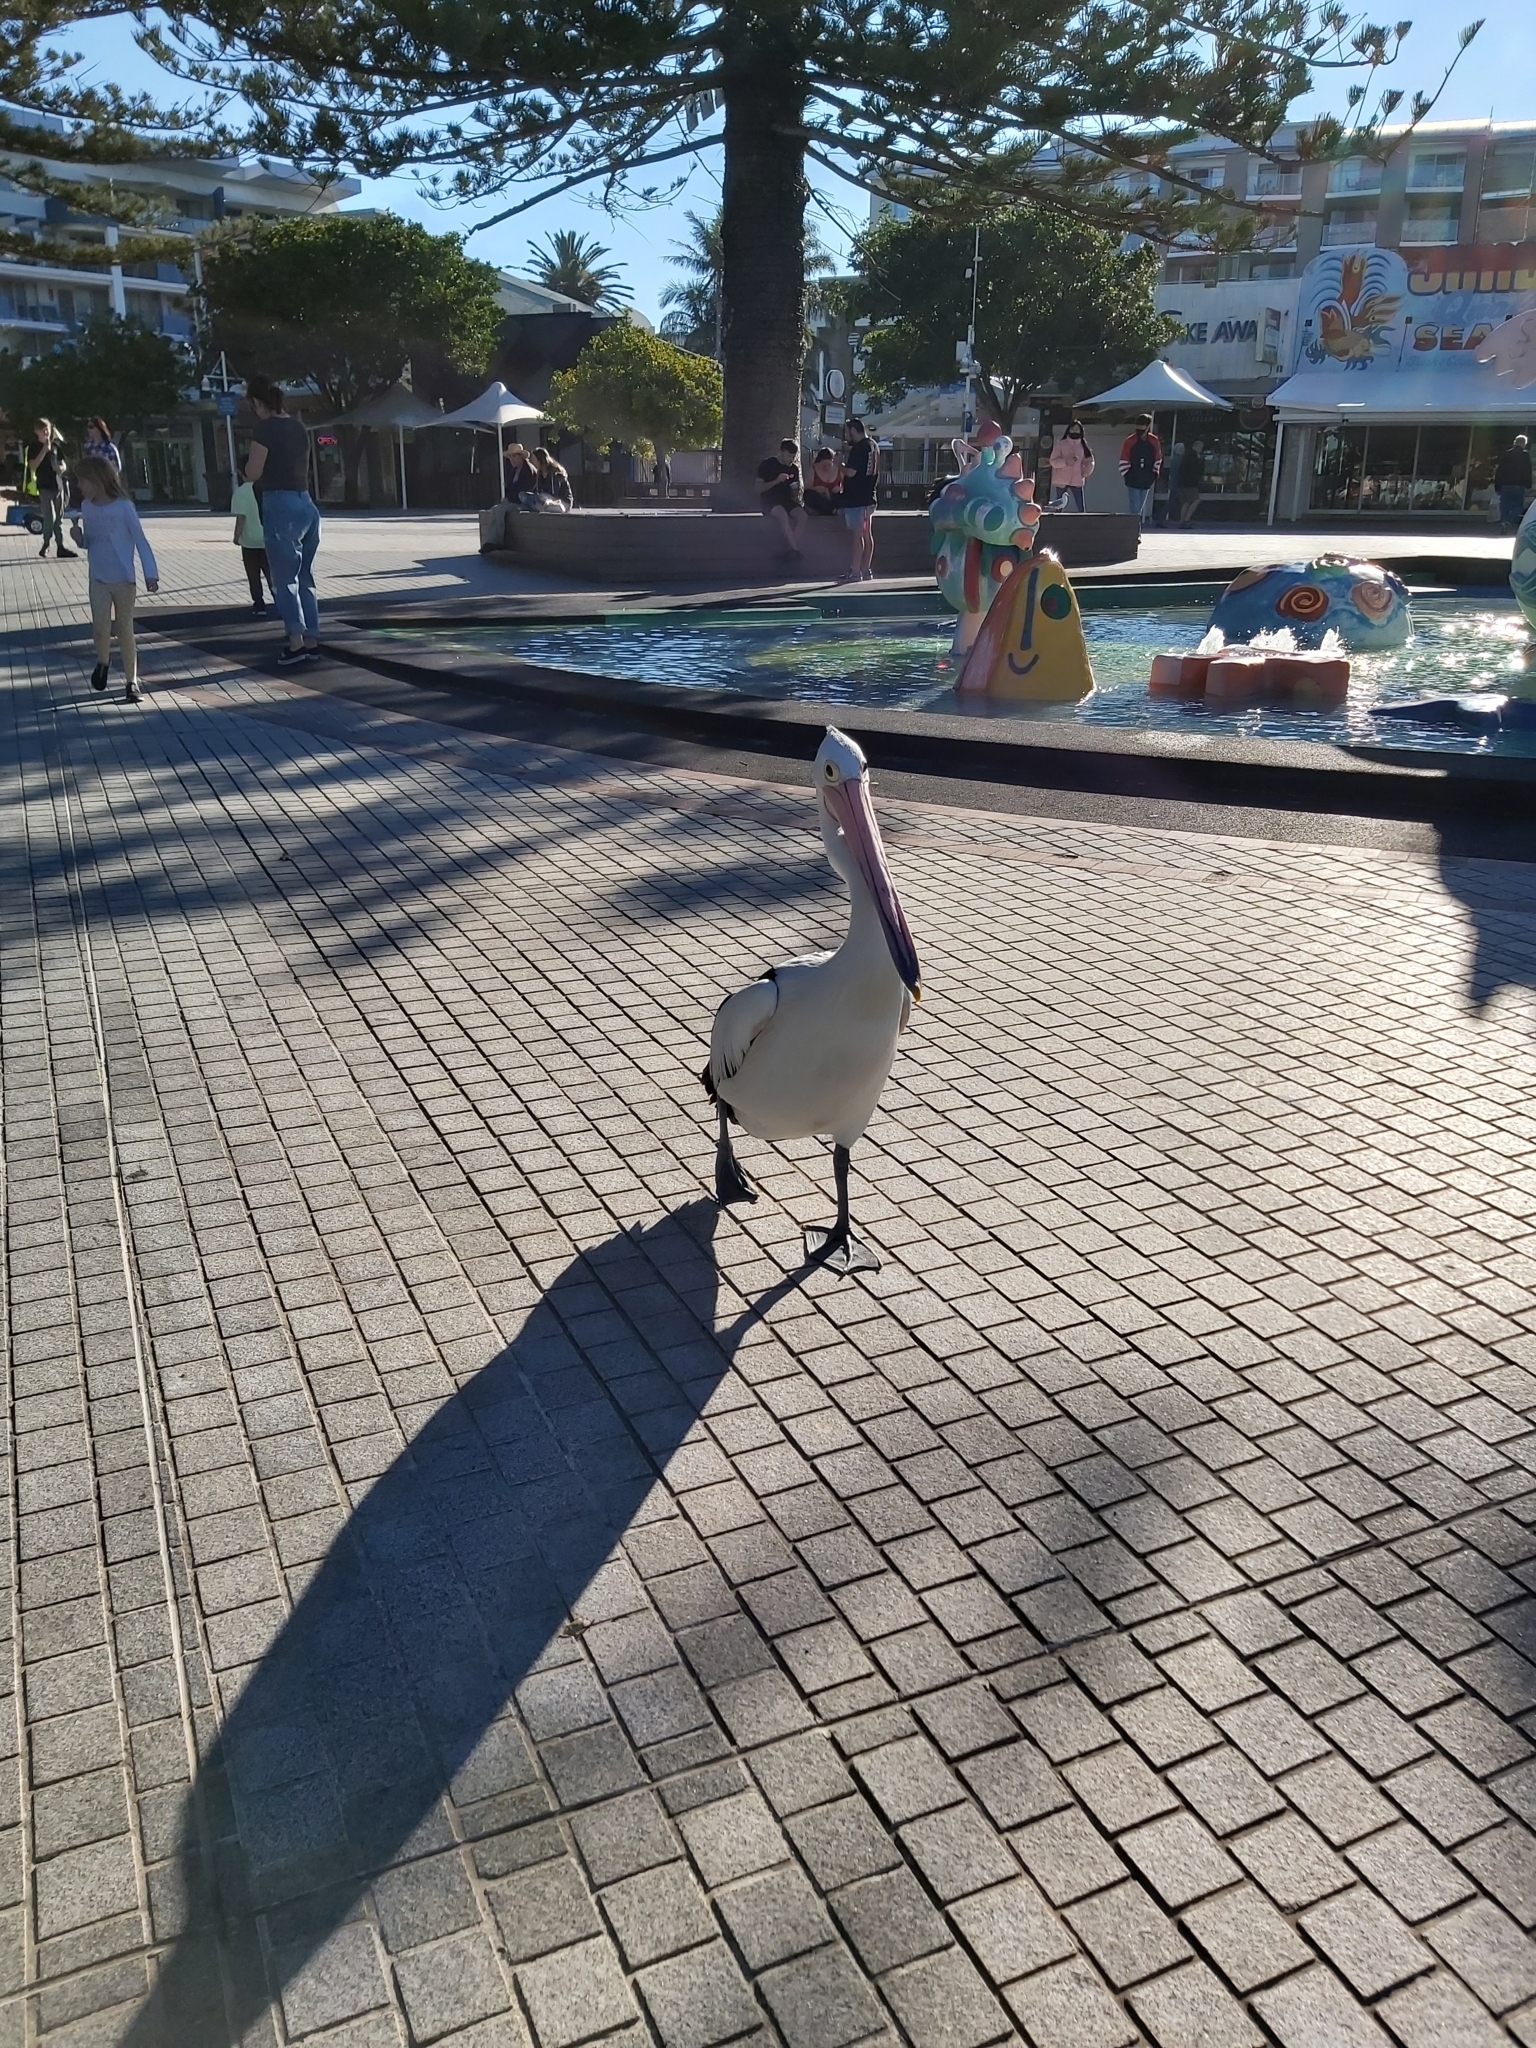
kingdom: Animalia
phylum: Chordata
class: Aves
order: Pelecaniformes
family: Pelecanidae
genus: Pelecanus
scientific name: Pelecanus conspicillatus
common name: Australian pelican
